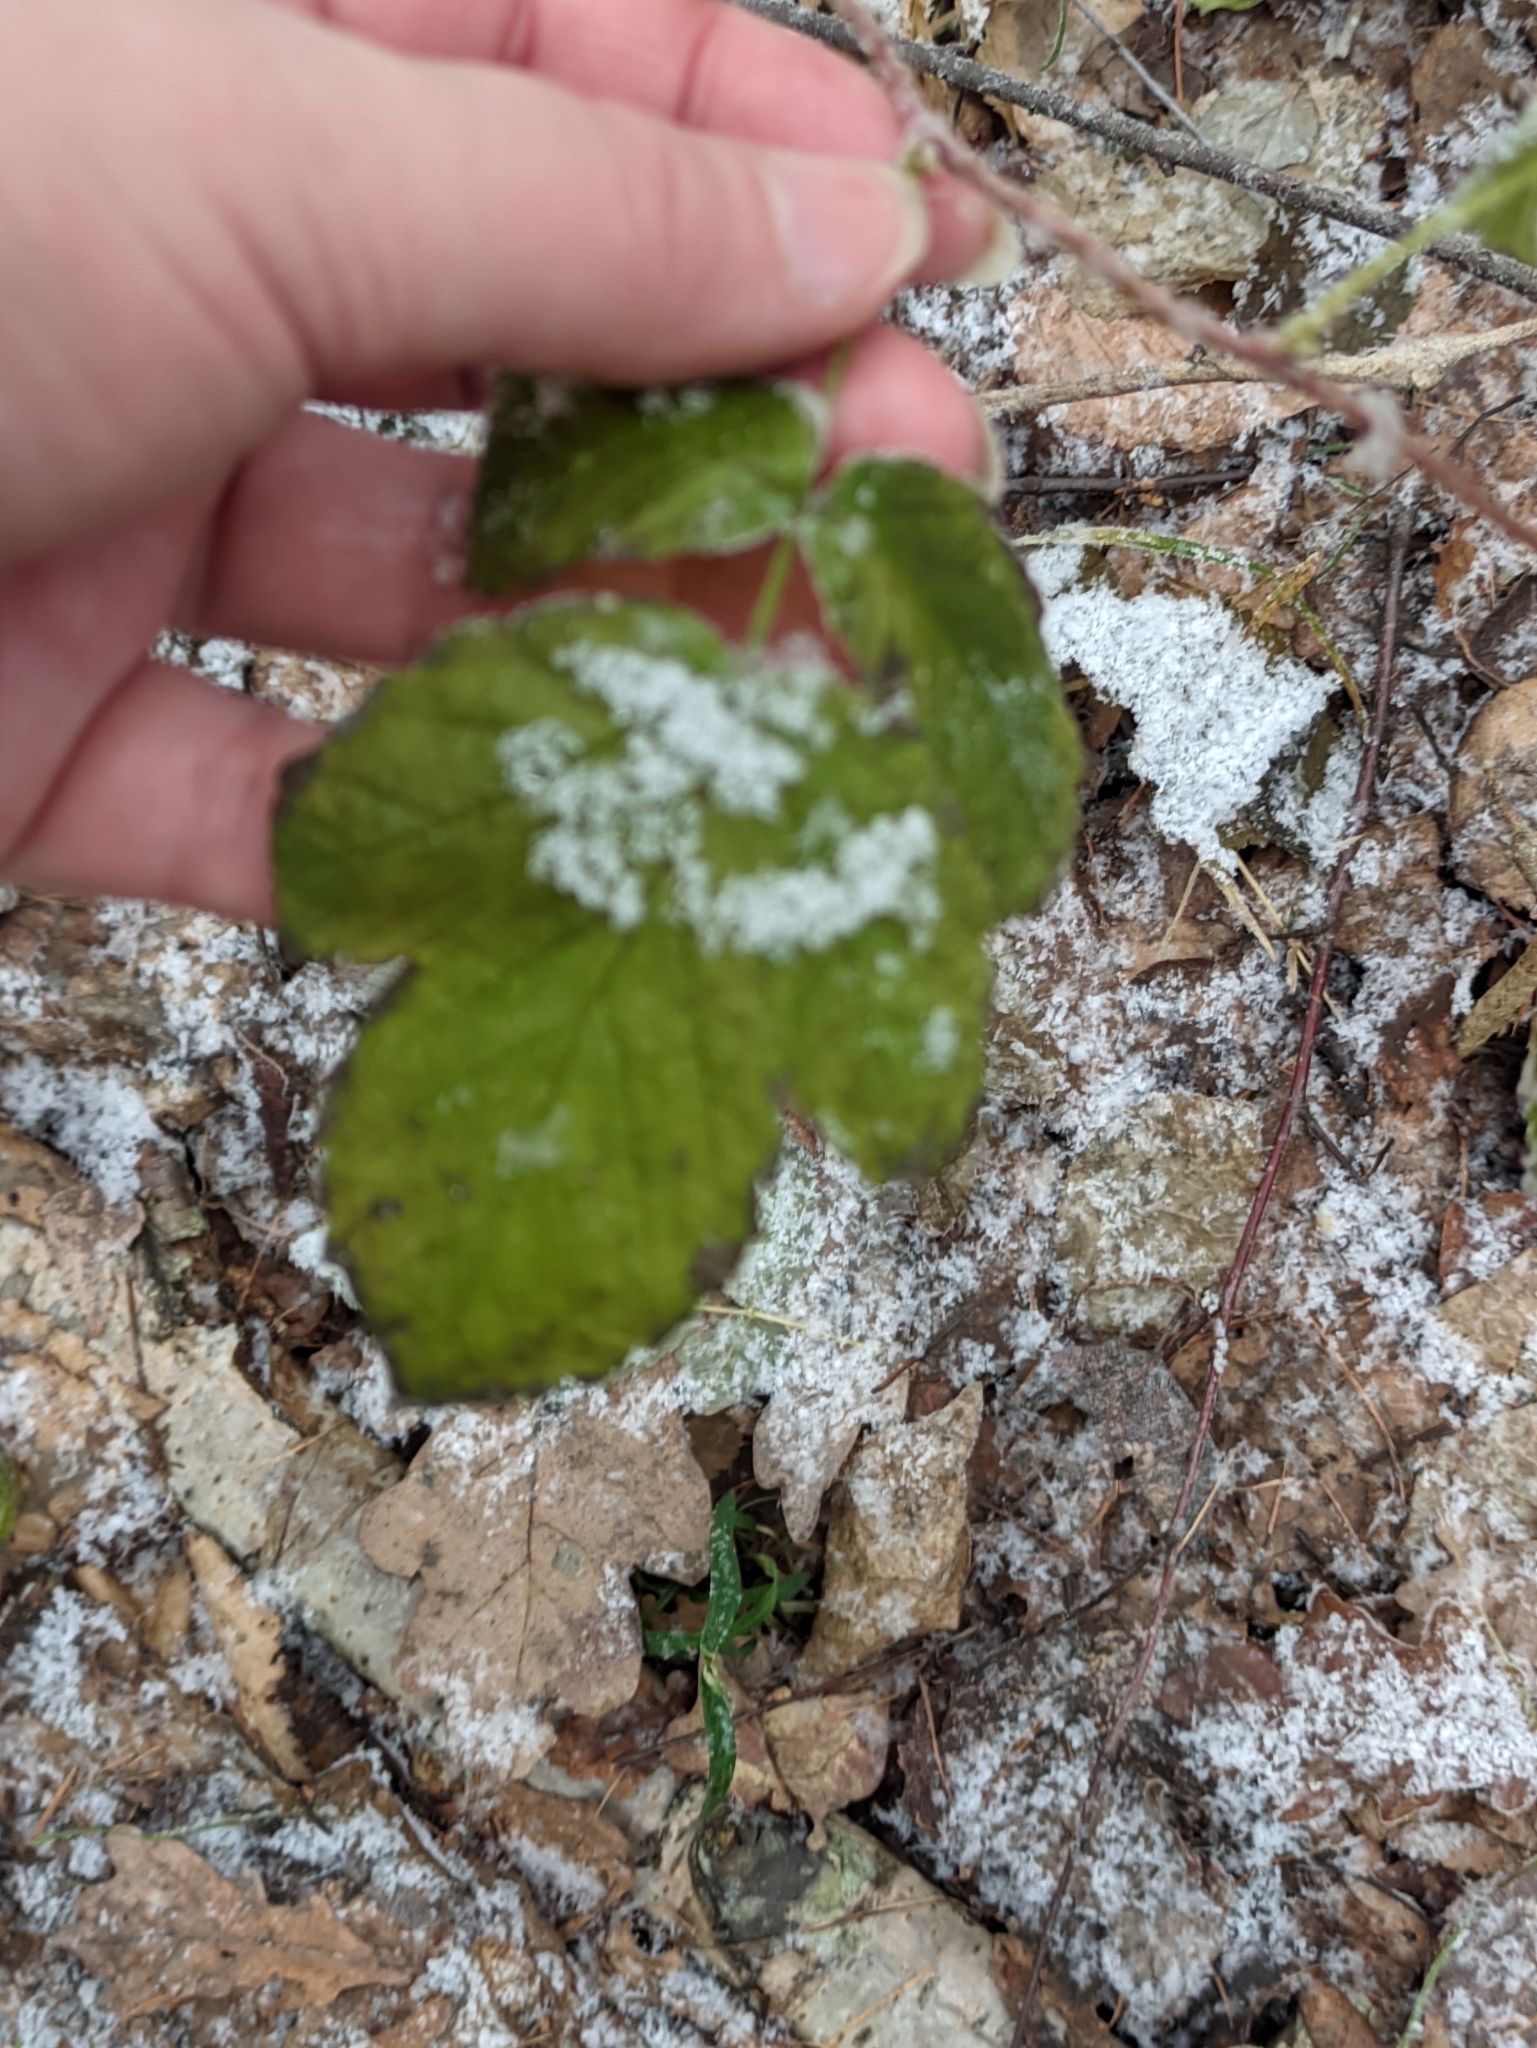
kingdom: Plantae
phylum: Tracheophyta
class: Magnoliopsida
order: Rosales
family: Rosaceae
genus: Rubus
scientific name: Rubus idaeus
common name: Raspberry
